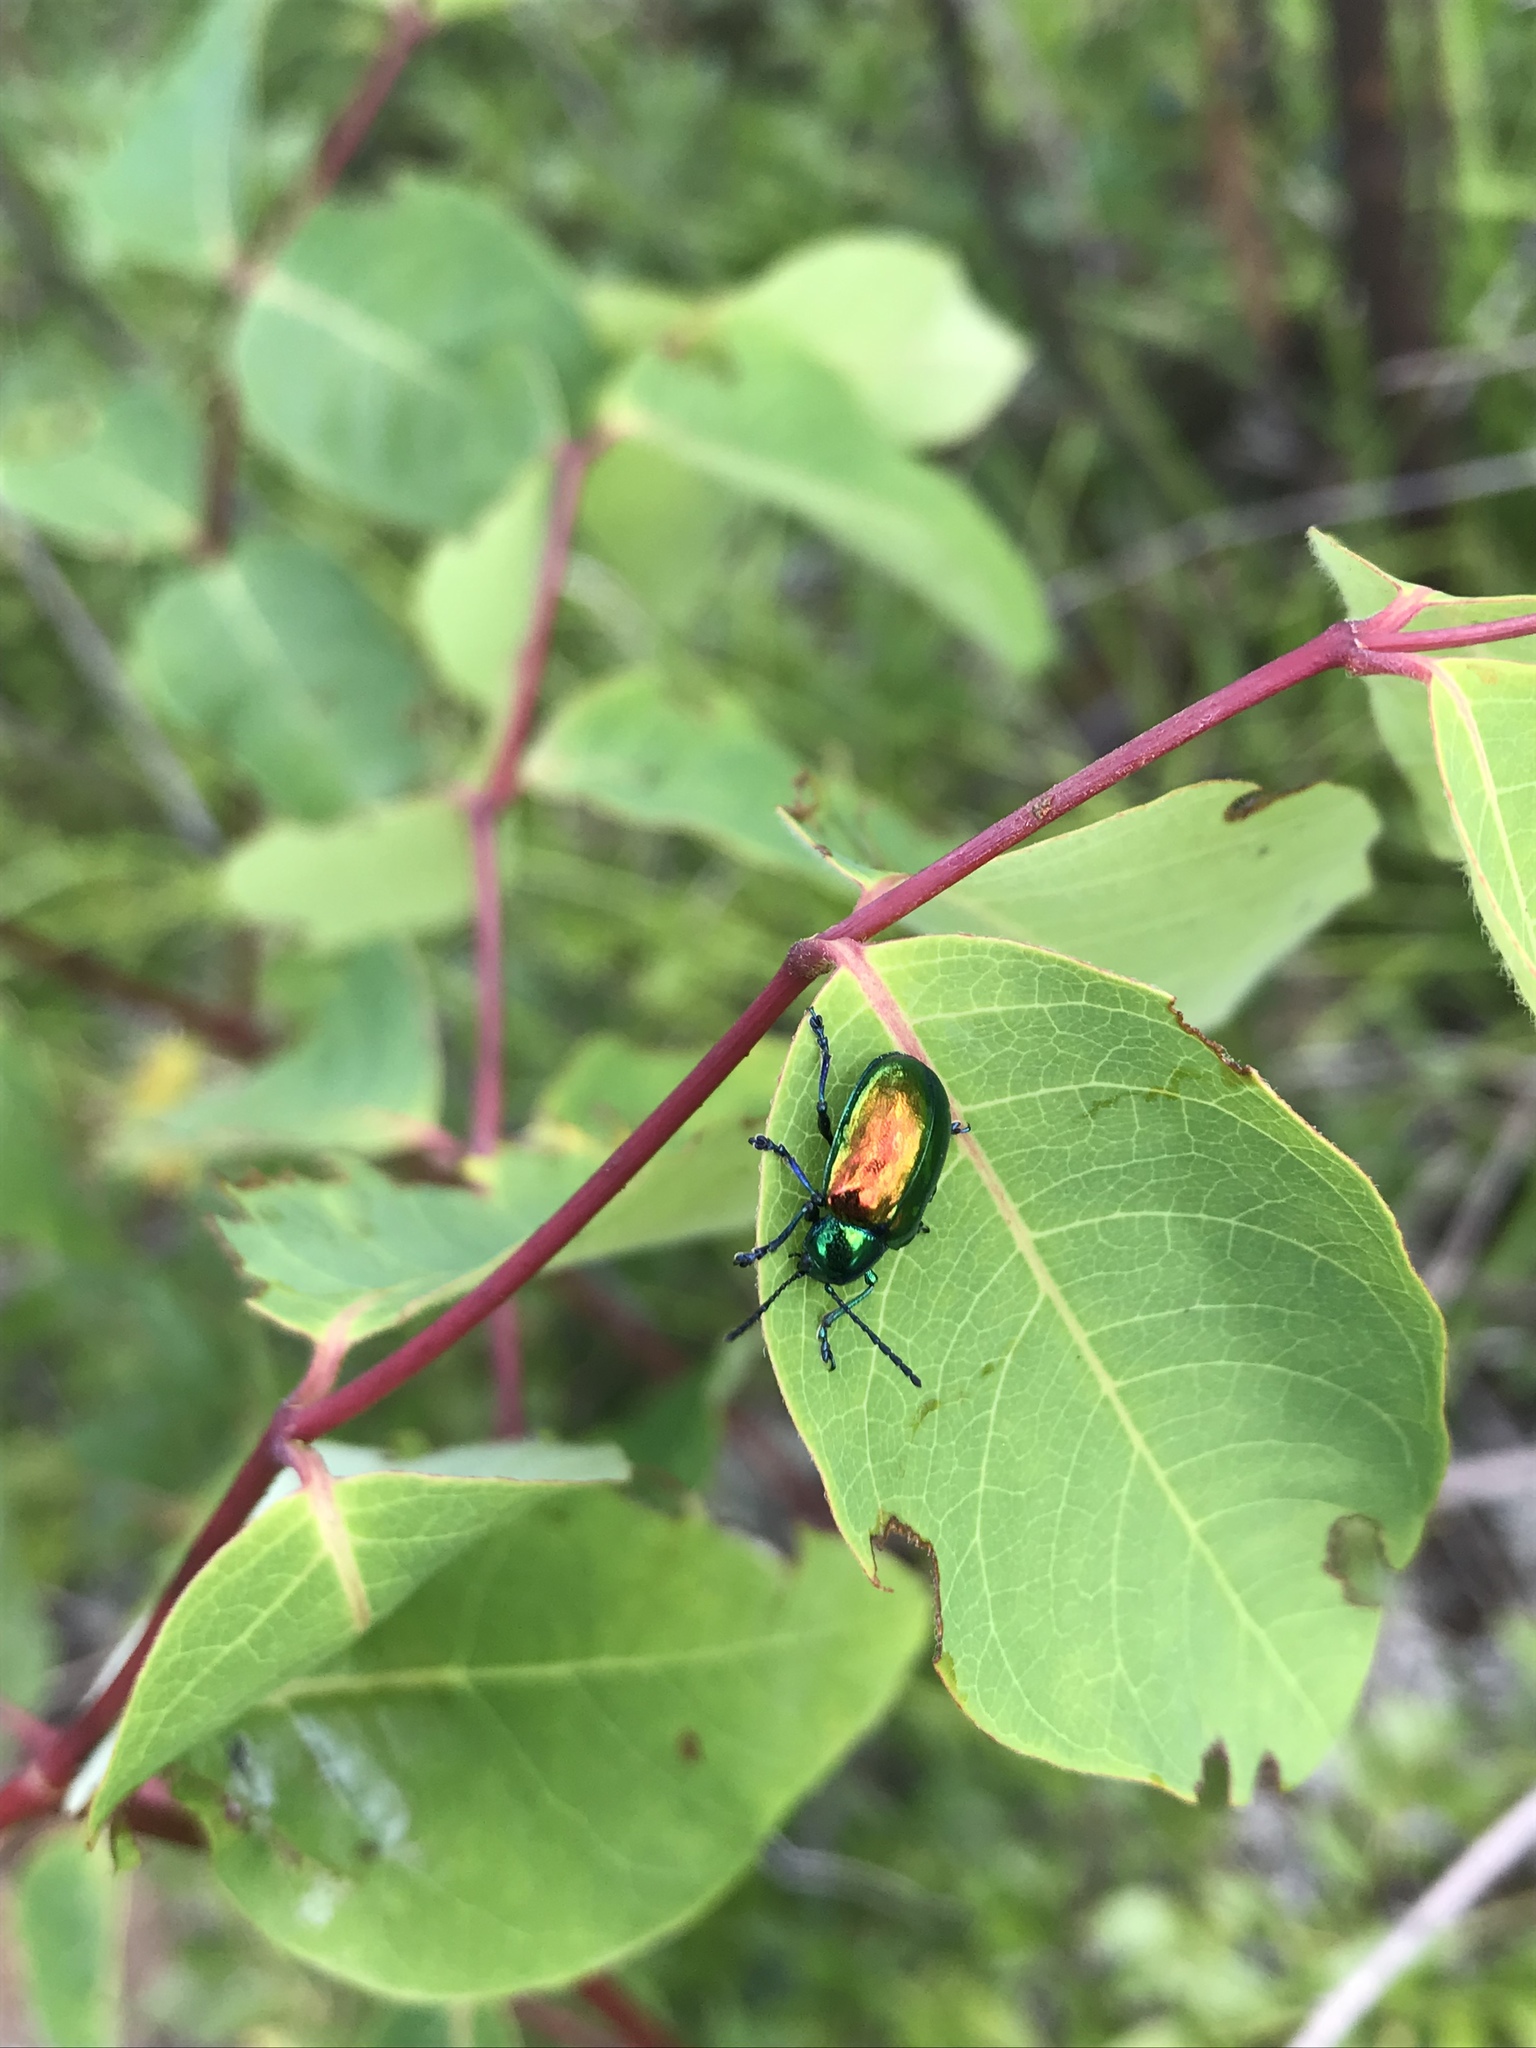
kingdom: Animalia
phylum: Arthropoda
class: Insecta
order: Coleoptera
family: Chrysomelidae
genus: Chrysochus
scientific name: Chrysochus auratus
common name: Dogbane leaf beetle
